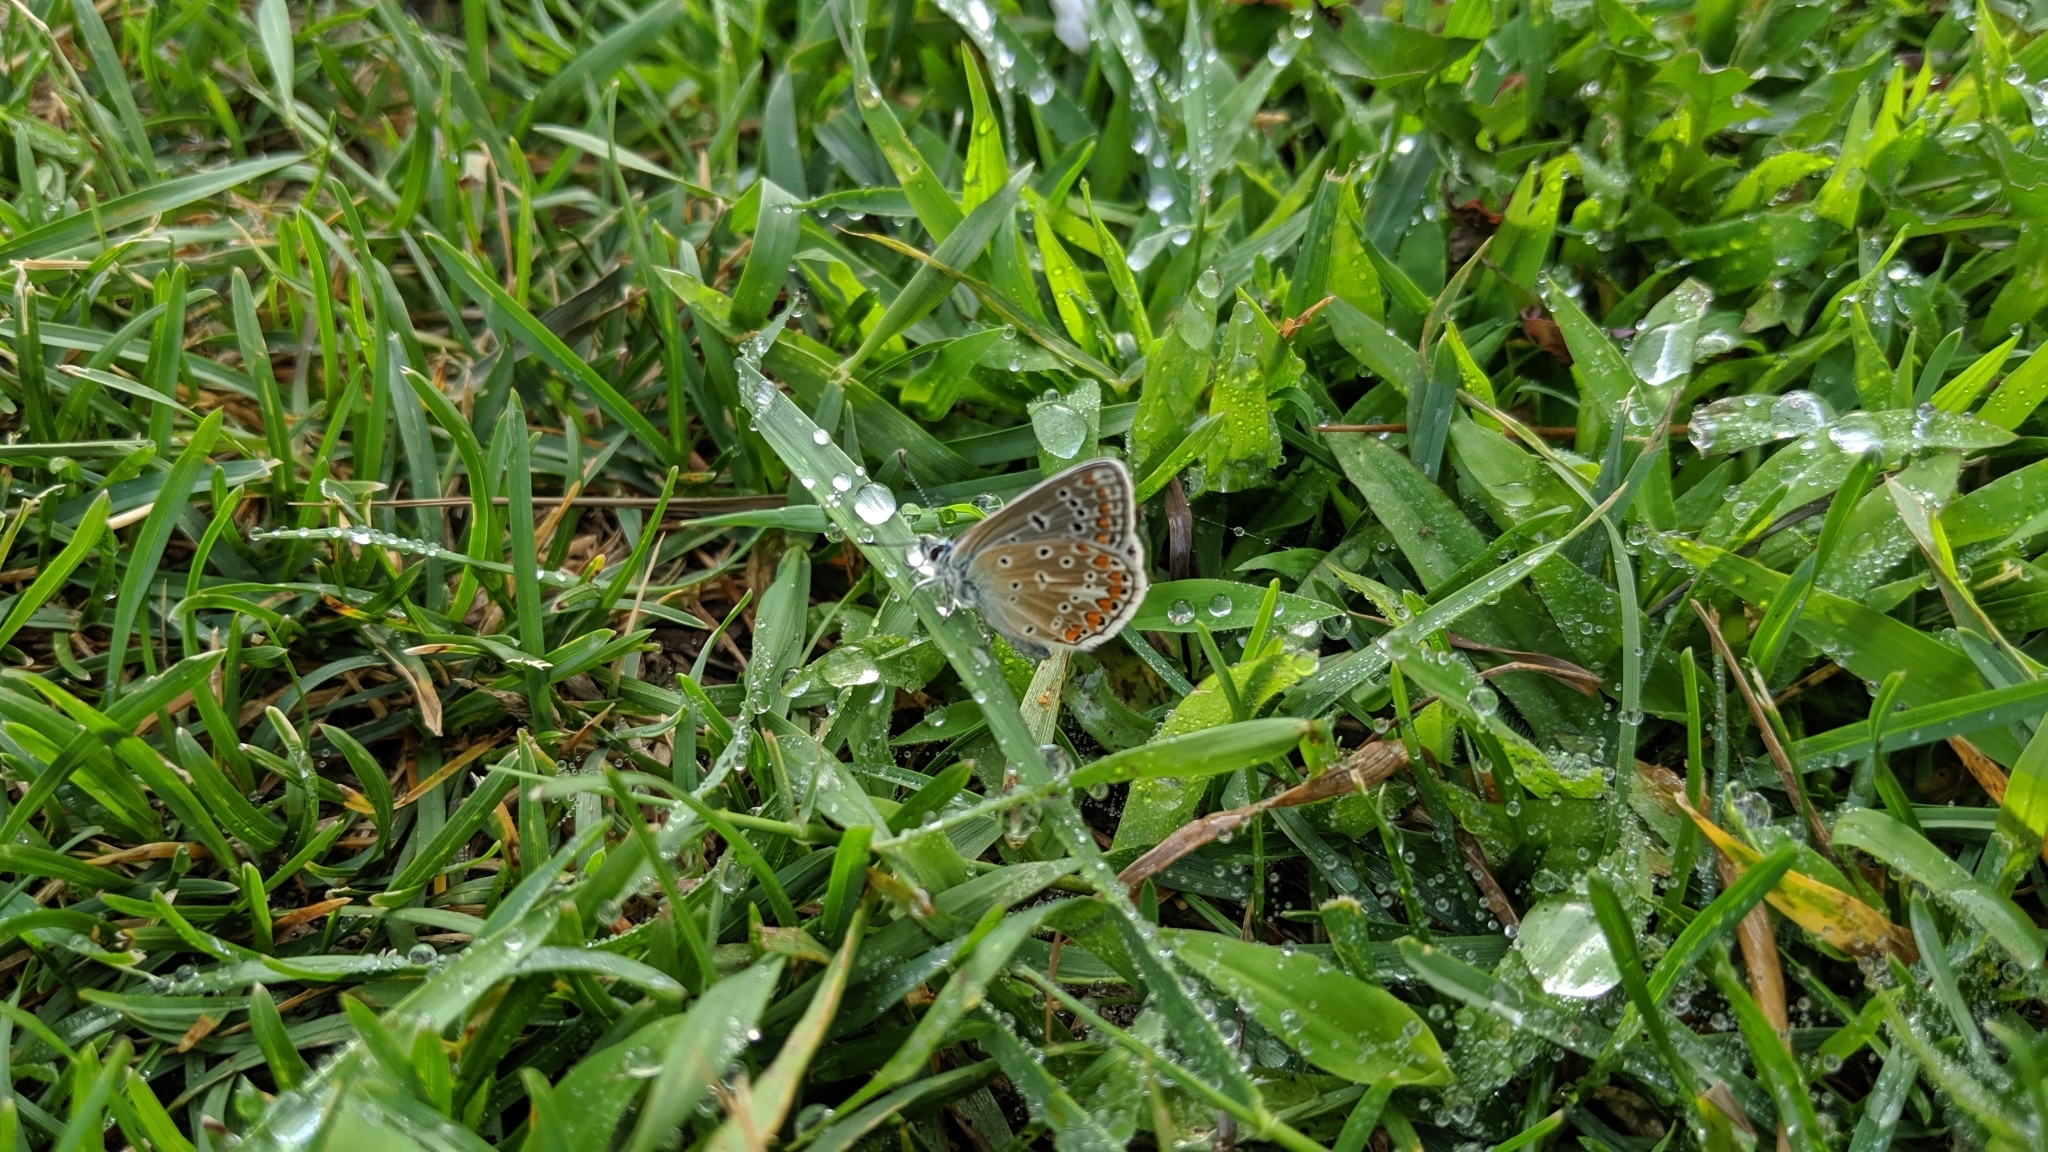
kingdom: Animalia
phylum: Arthropoda
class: Insecta
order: Lepidoptera
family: Lycaenidae
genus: Polyommatus
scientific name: Polyommatus icarus
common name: Common blue
